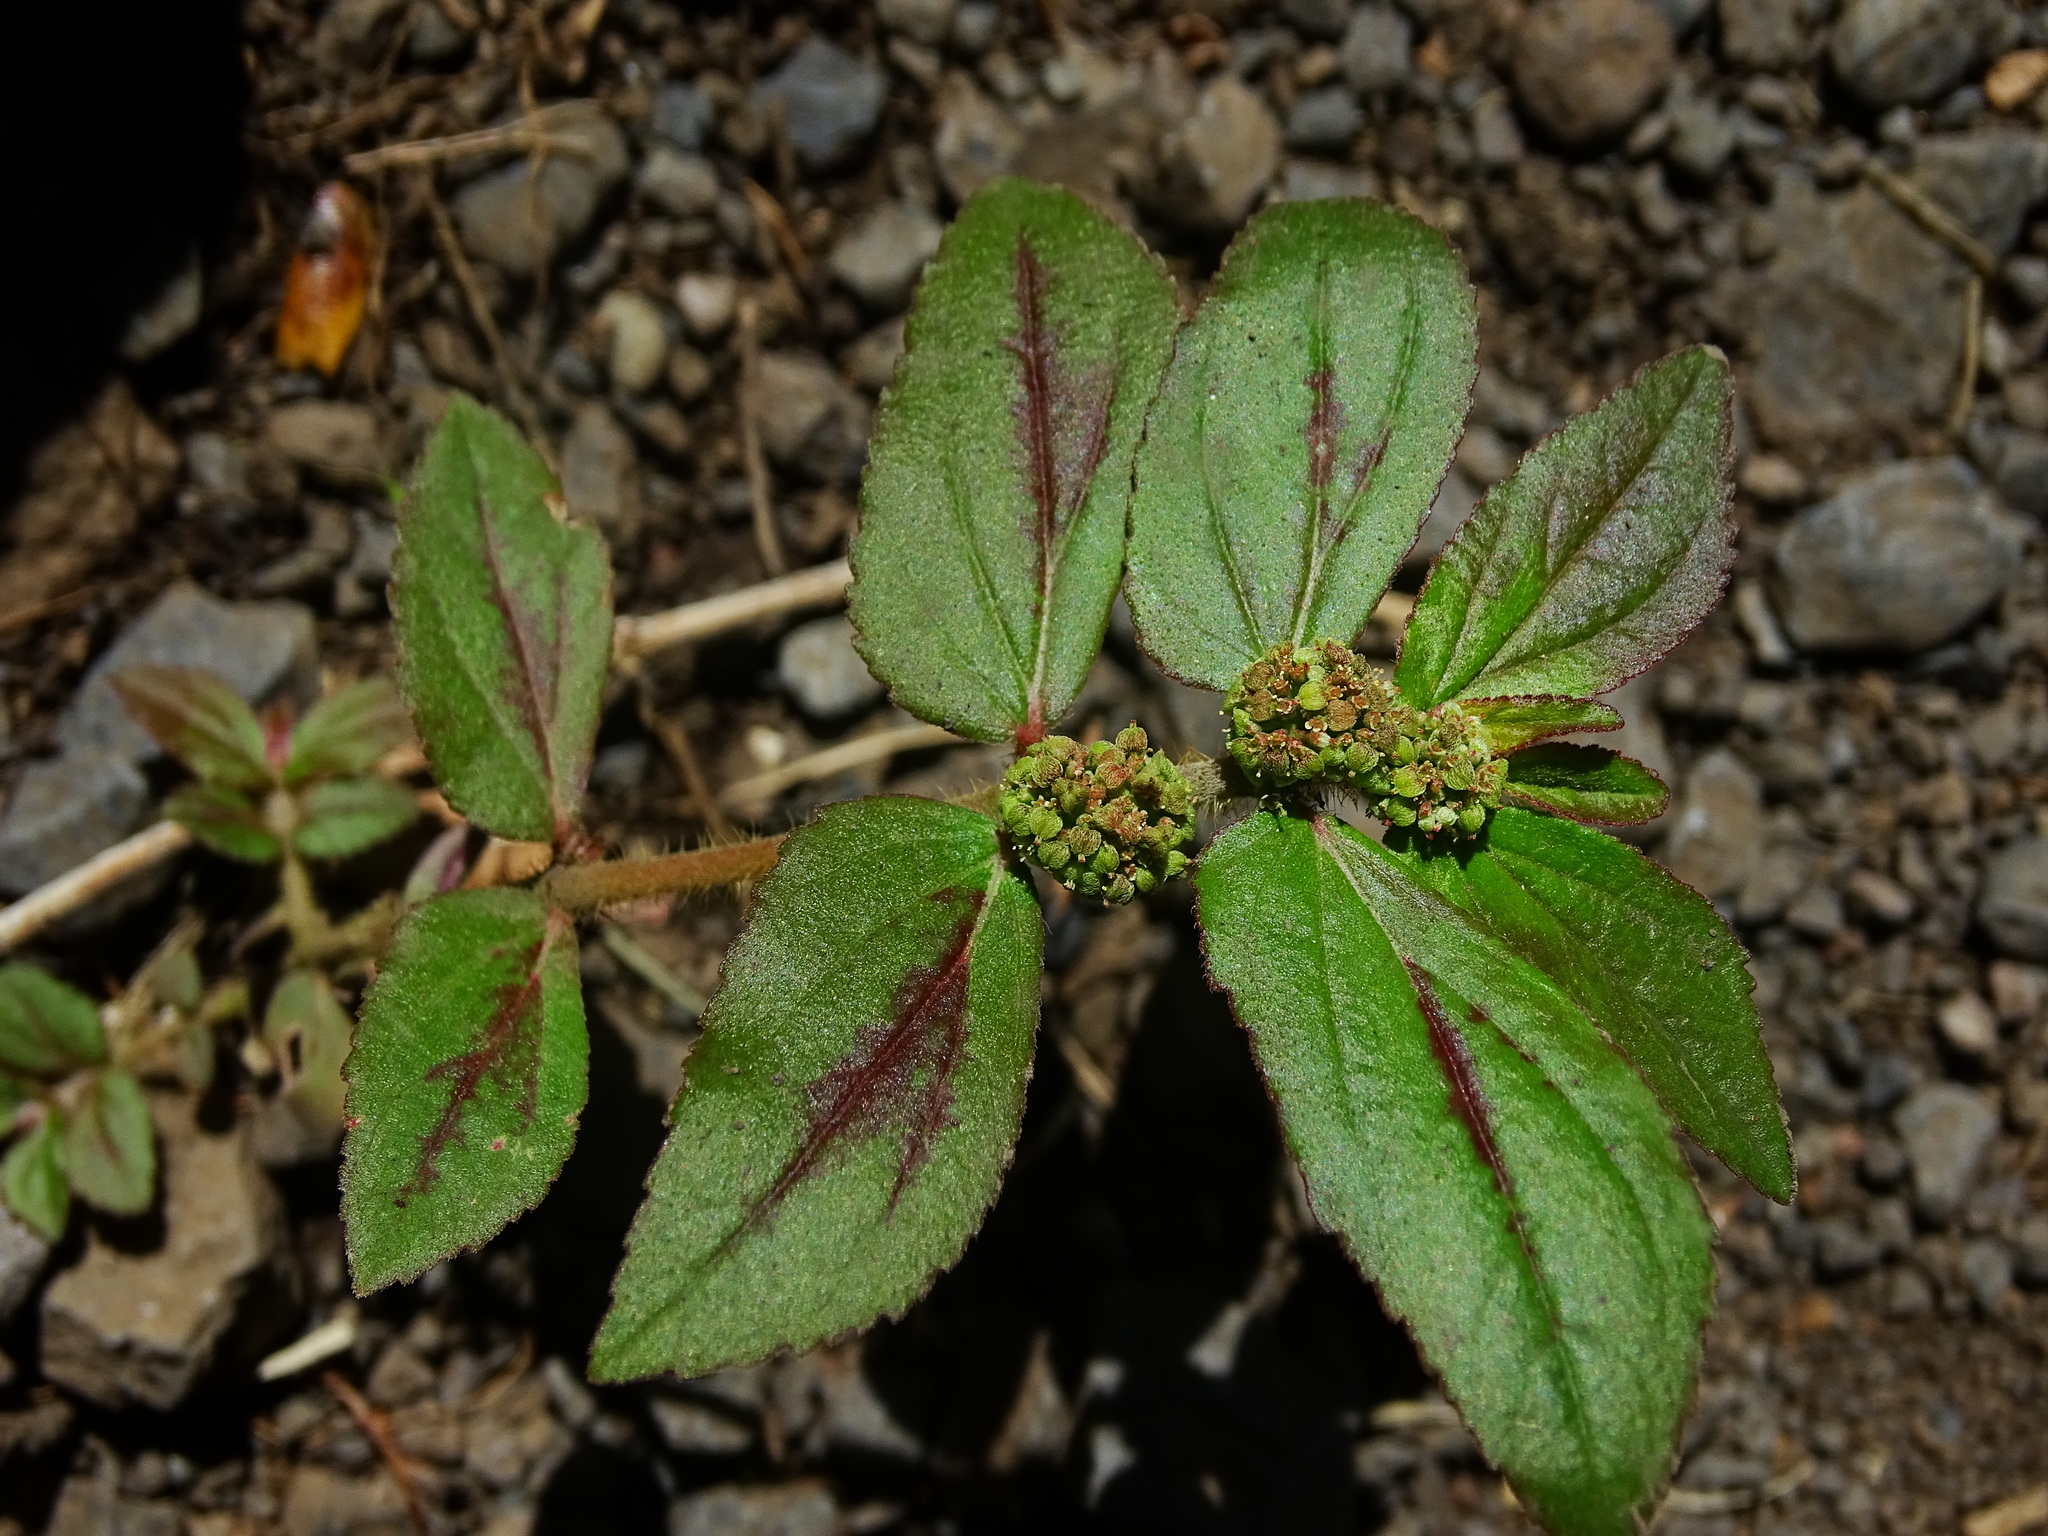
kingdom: Plantae
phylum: Tracheophyta
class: Magnoliopsida
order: Malpighiales
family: Euphorbiaceae
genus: Euphorbia
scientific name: Euphorbia hirta
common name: Pillpod sandmat
